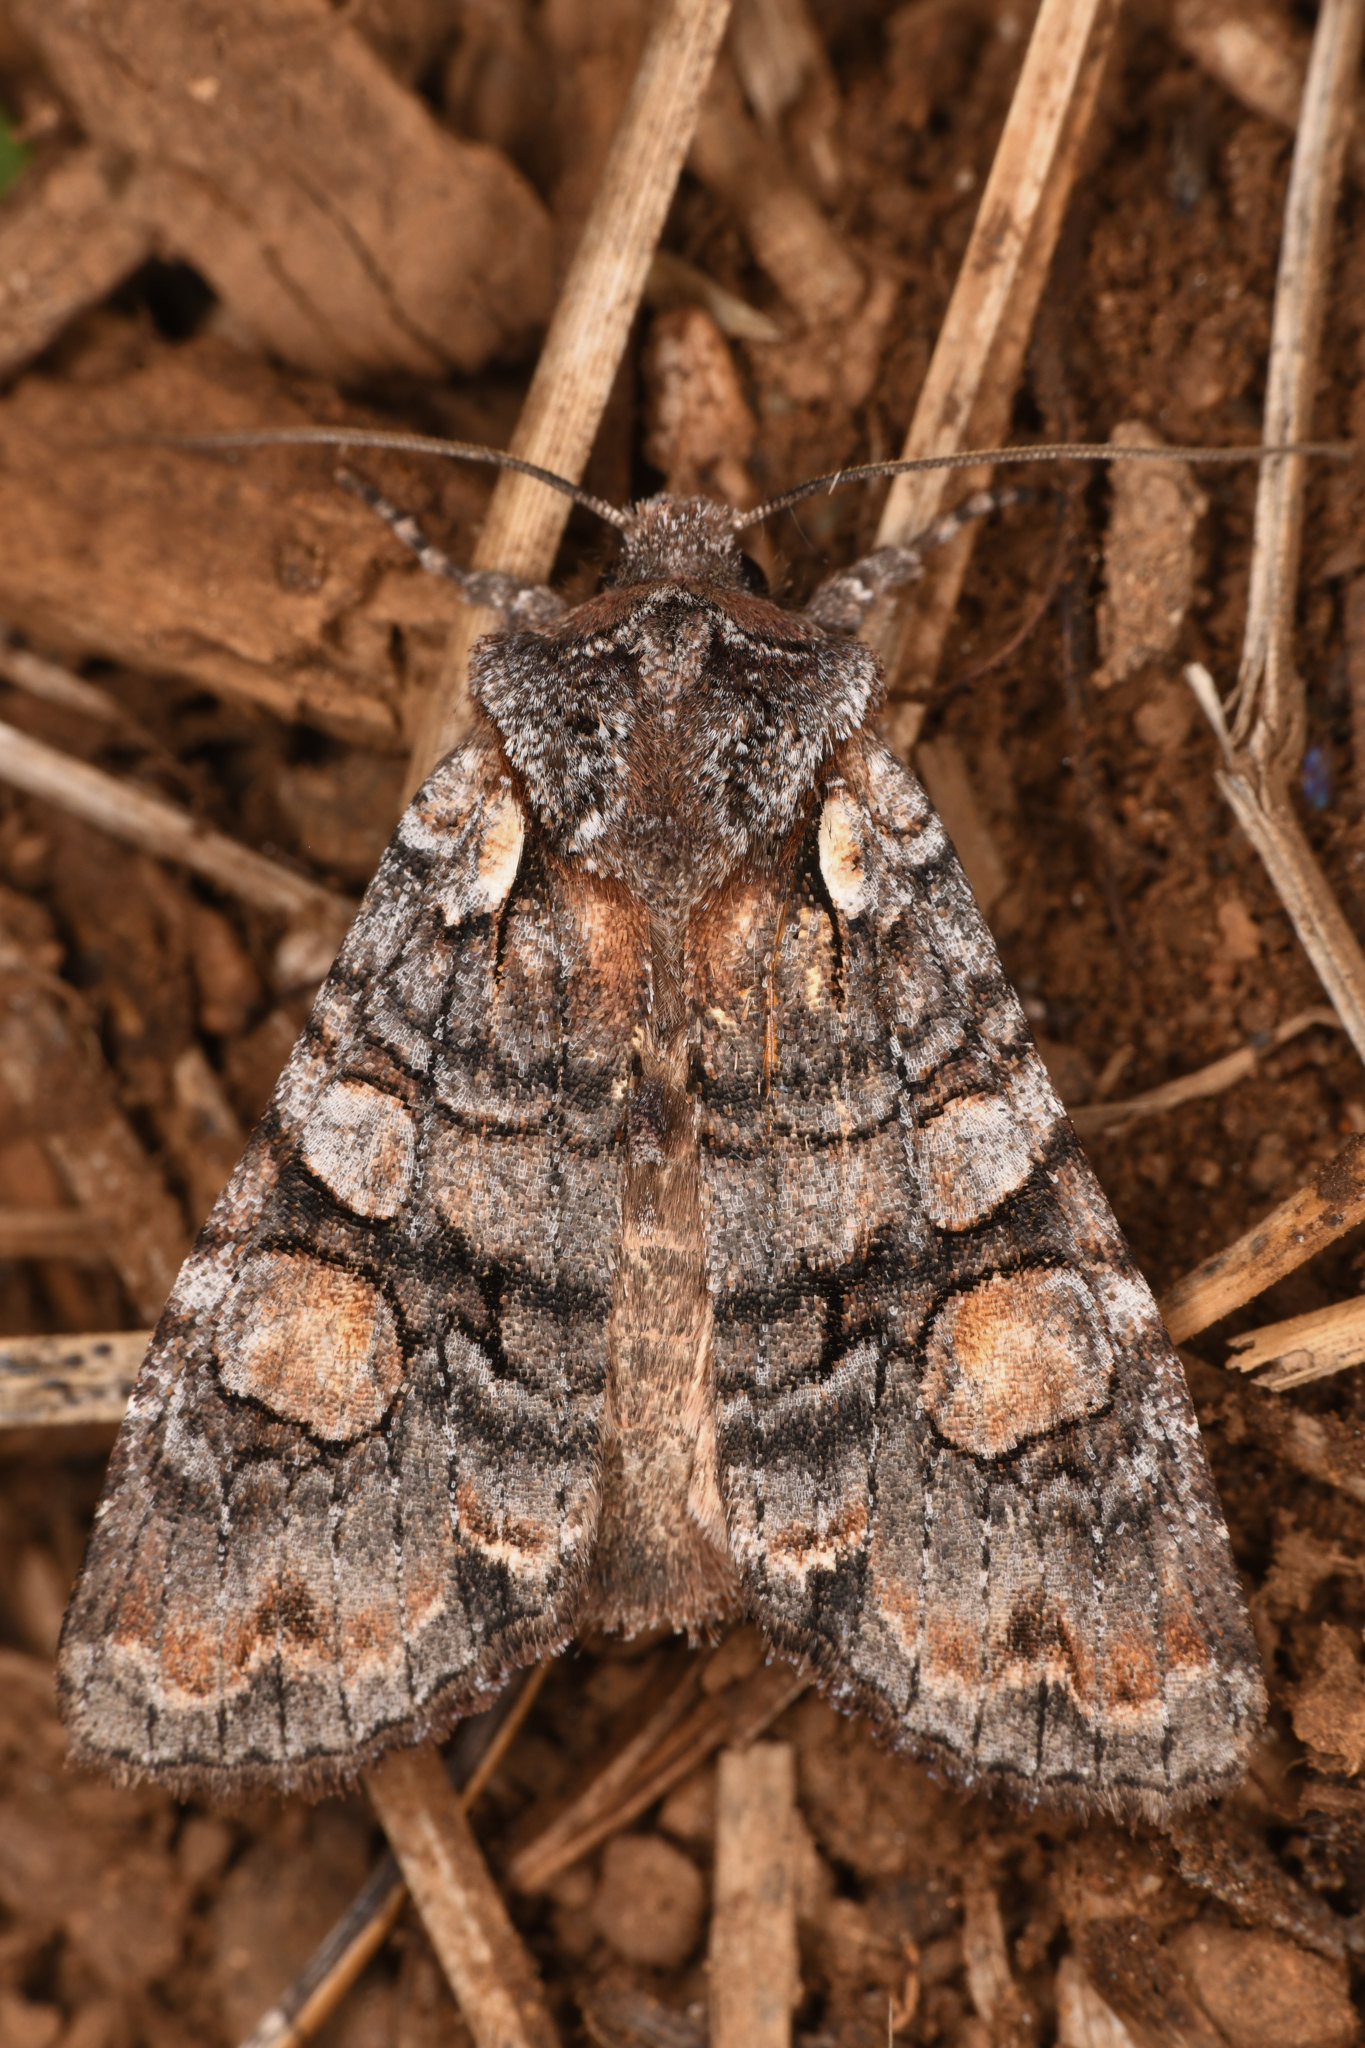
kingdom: Animalia
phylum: Arthropoda
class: Insecta
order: Lepidoptera
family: Noctuidae
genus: Lithophane
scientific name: Lithophane dilatocula
